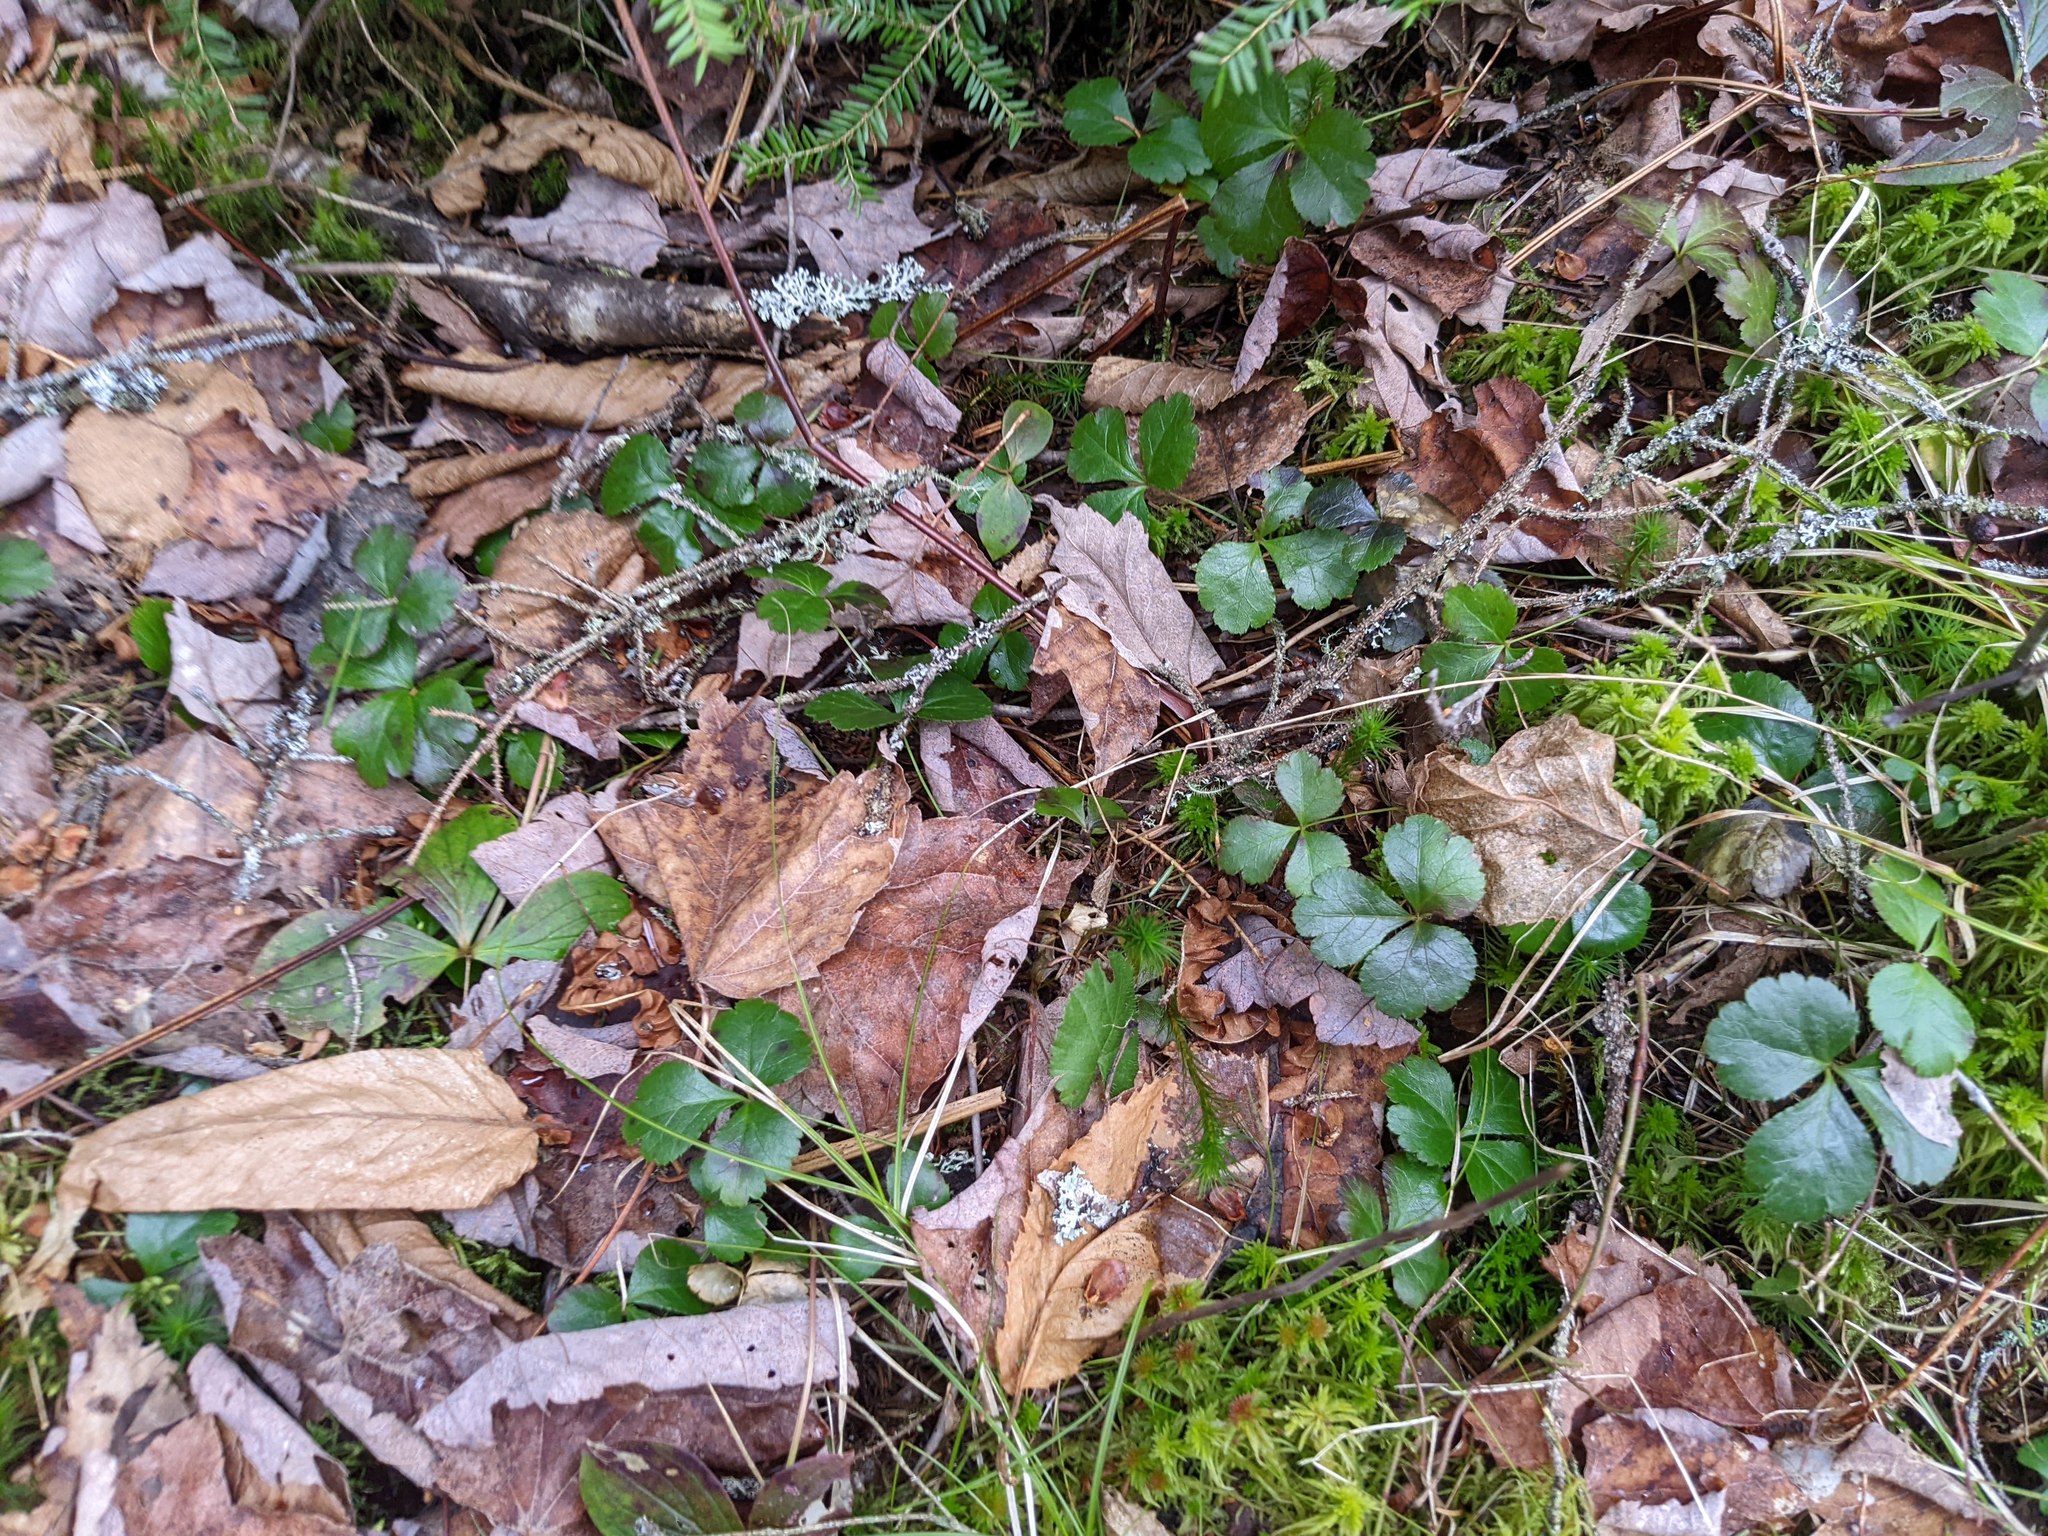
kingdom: Plantae
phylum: Tracheophyta
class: Magnoliopsida
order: Ranunculales
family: Ranunculaceae
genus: Coptis
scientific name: Coptis trifolia
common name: Canker-root
